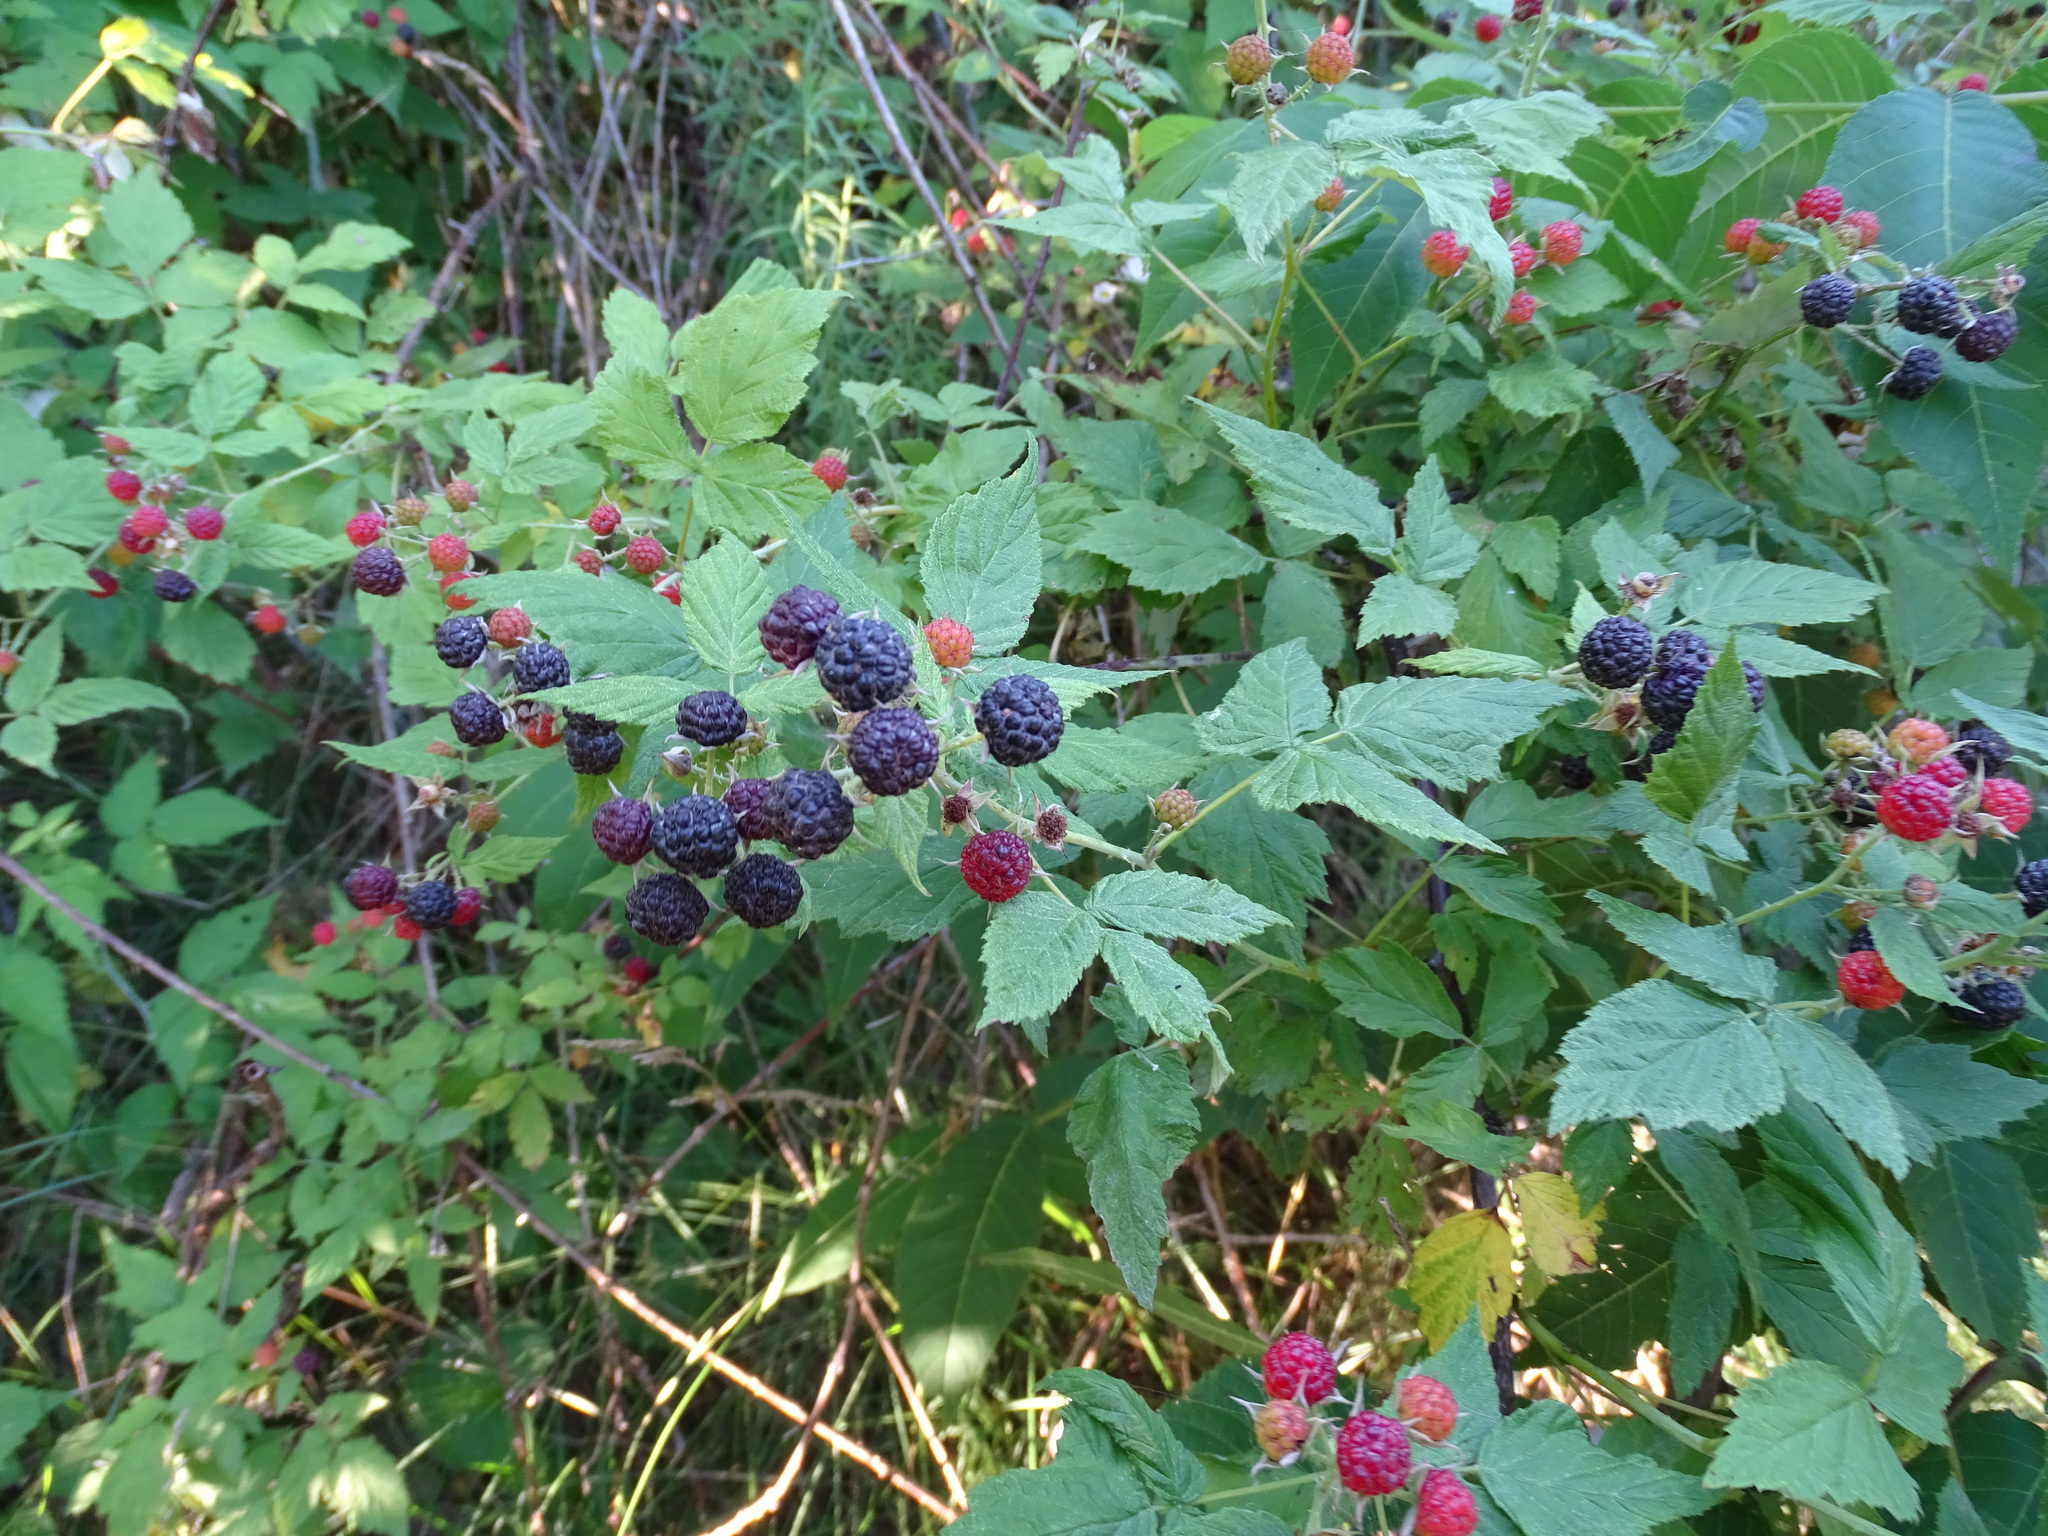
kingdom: Plantae
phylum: Tracheophyta
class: Magnoliopsida
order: Rosales
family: Rosaceae
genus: Rubus
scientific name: Rubus occidentalis
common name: Black raspberry
